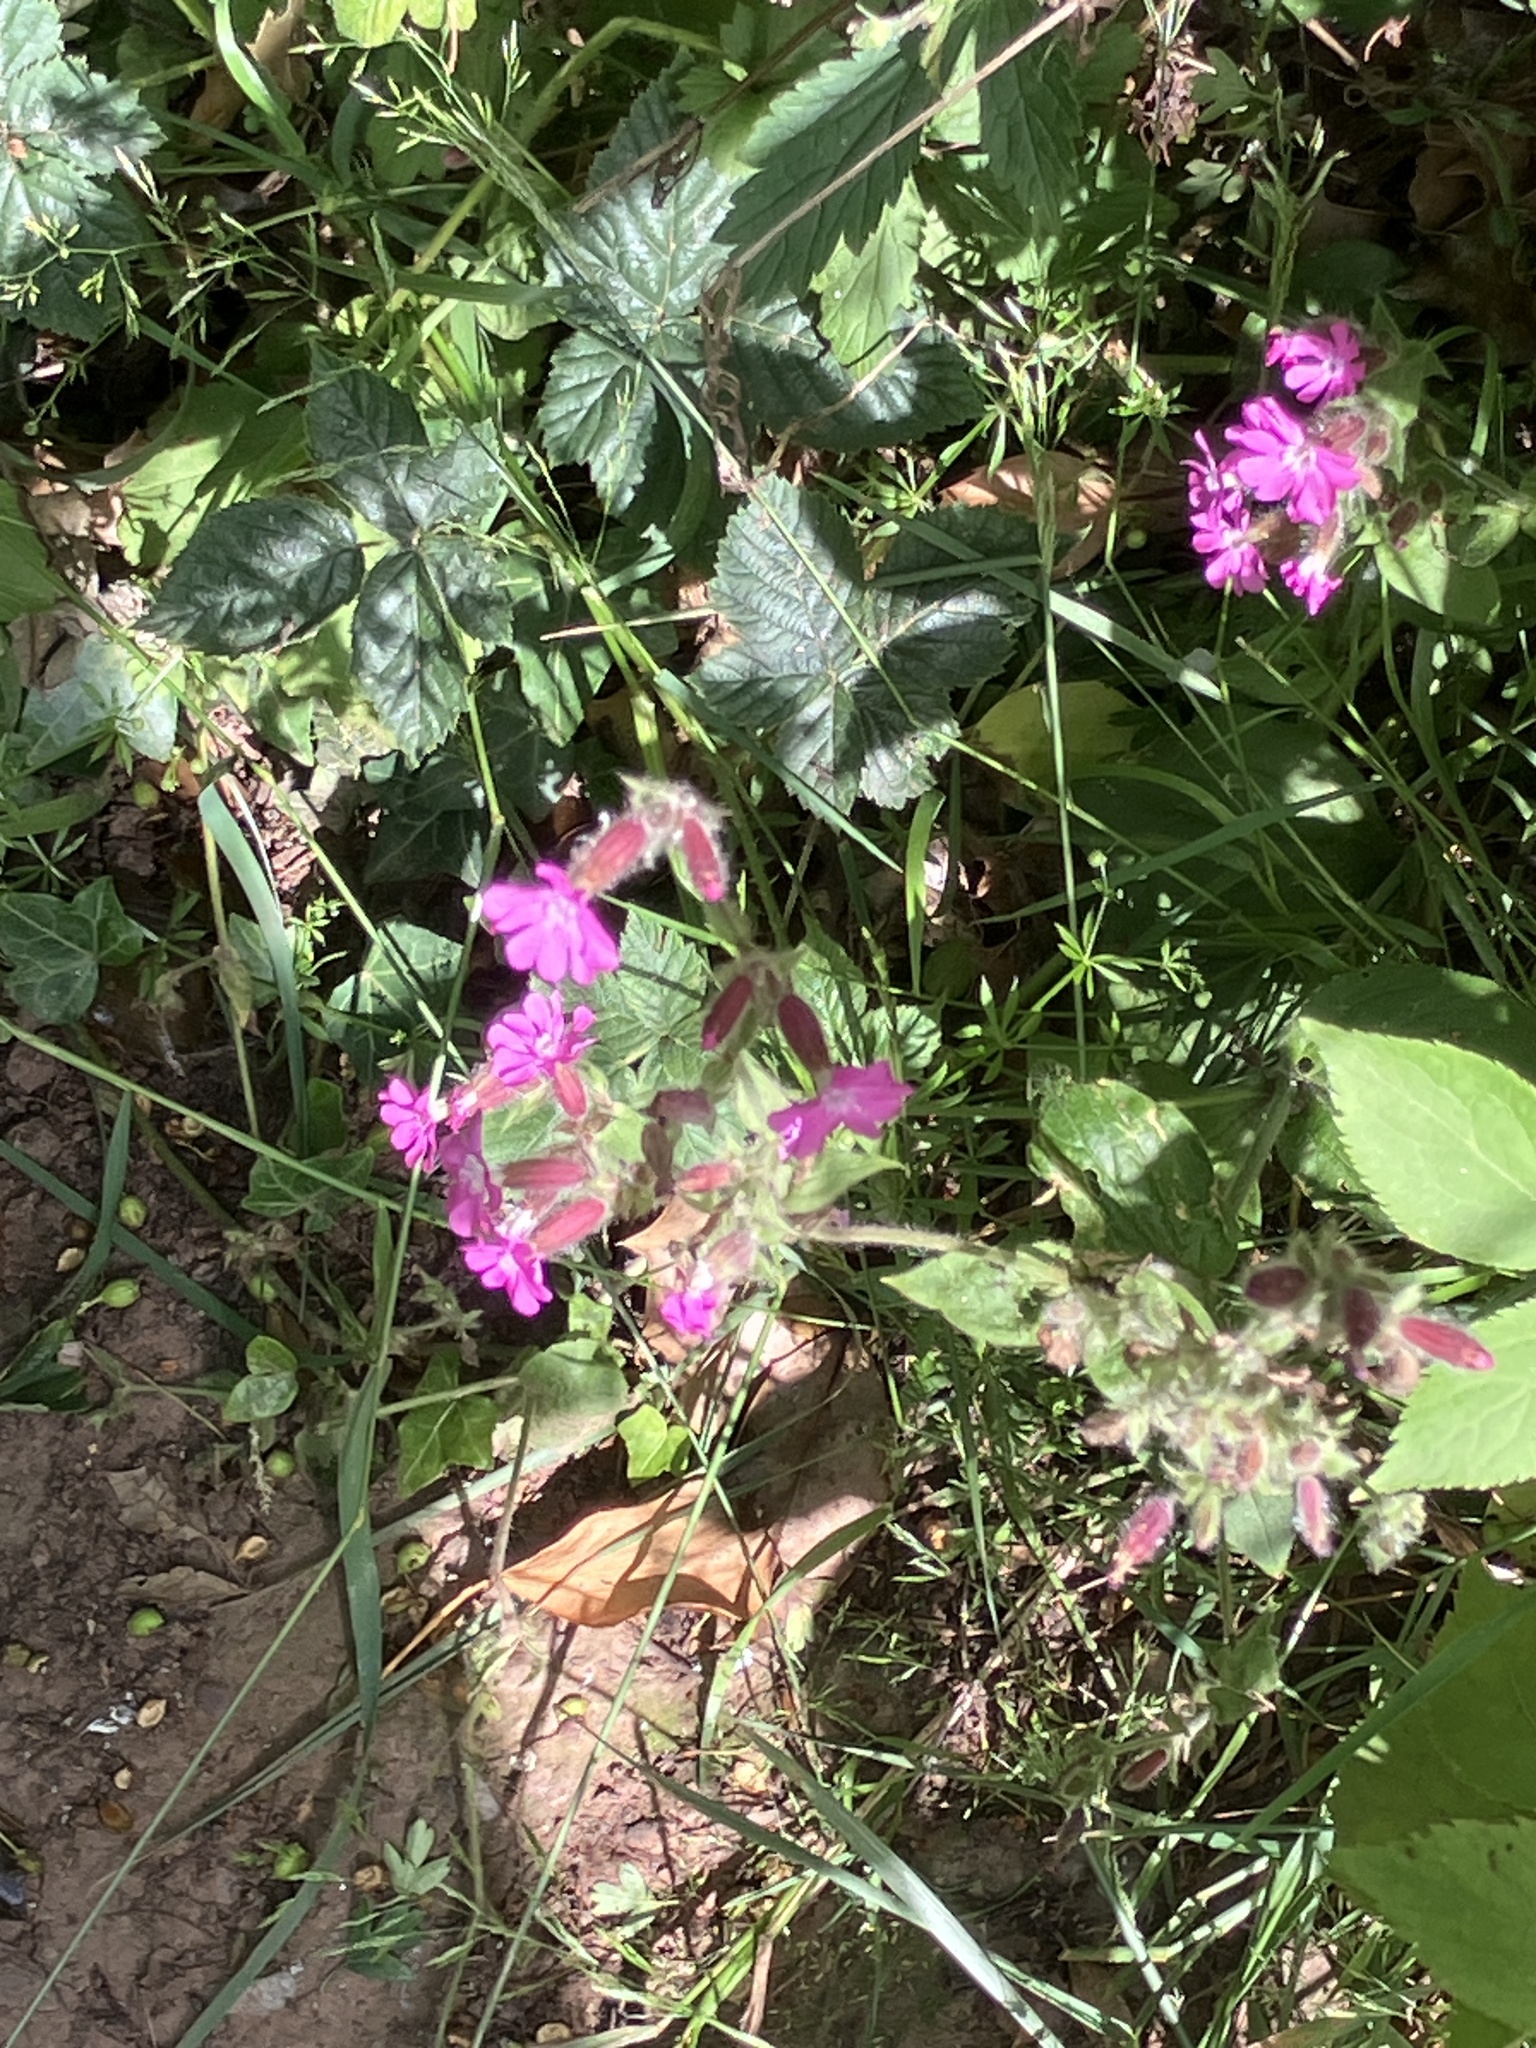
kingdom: Plantae
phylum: Tracheophyta
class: Magnoliopsida
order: Caryophyllales
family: Caryophyllaceae
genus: Silene
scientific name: Silene dioica
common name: Red campion
